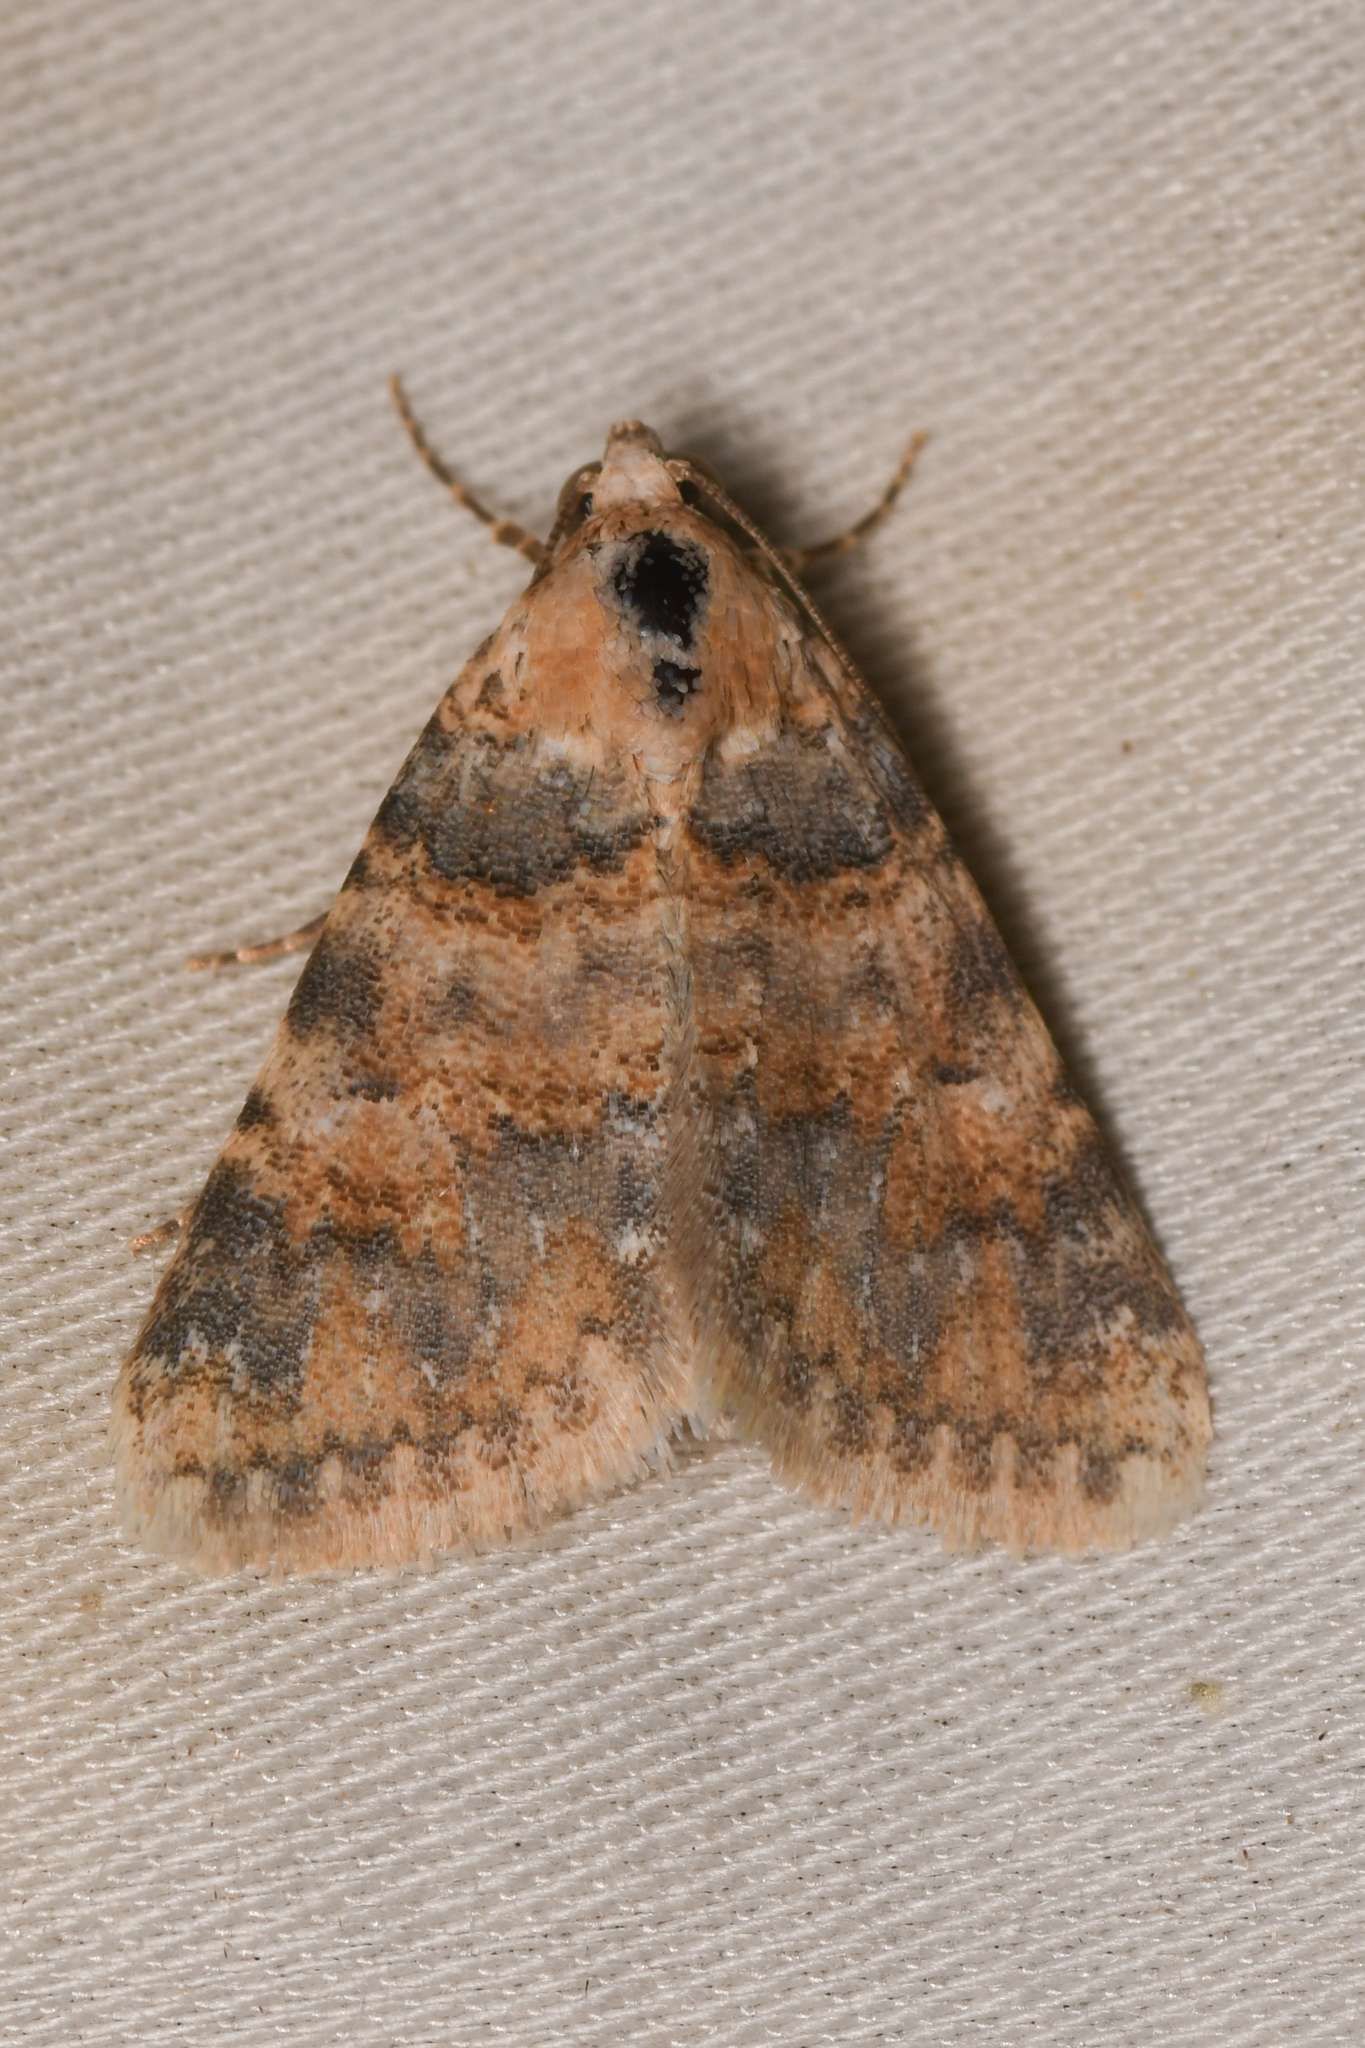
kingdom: Animalia
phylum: Arthropoda
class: Insecta
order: Lepidoptera
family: Noctuidae
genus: Allerastria
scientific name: Allerastria albiciliatus
